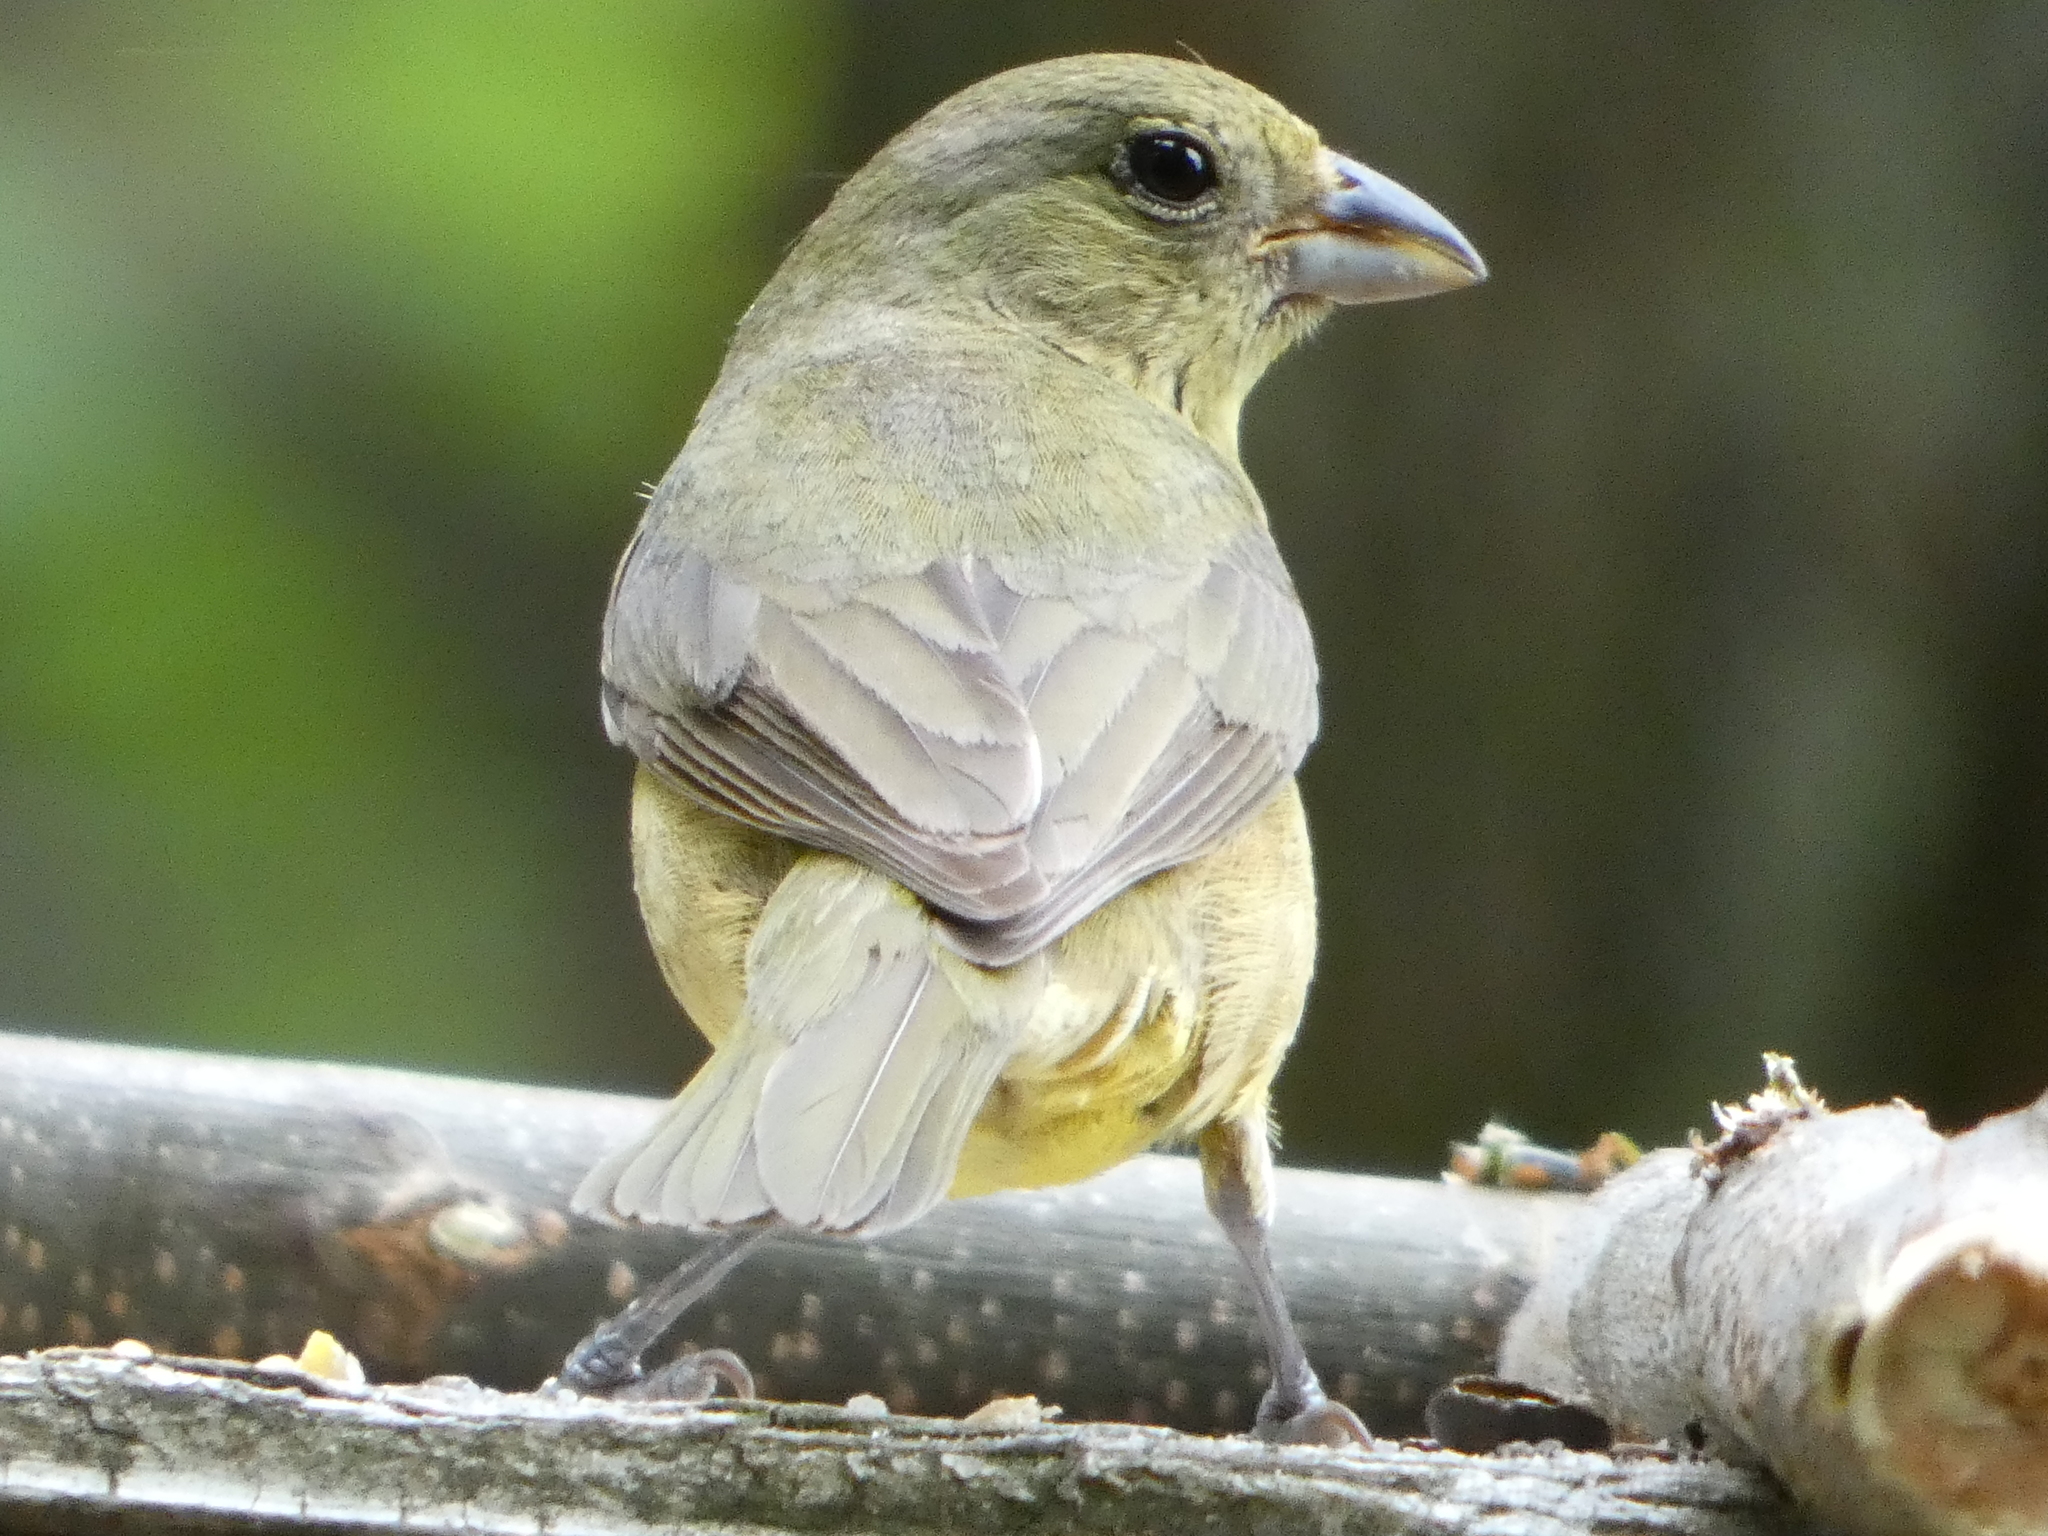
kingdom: Animalia
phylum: Chordata
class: Aves
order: Passeriformes
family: Cardinalidae
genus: Passerina
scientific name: Passerina ciris
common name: Painted bunting
